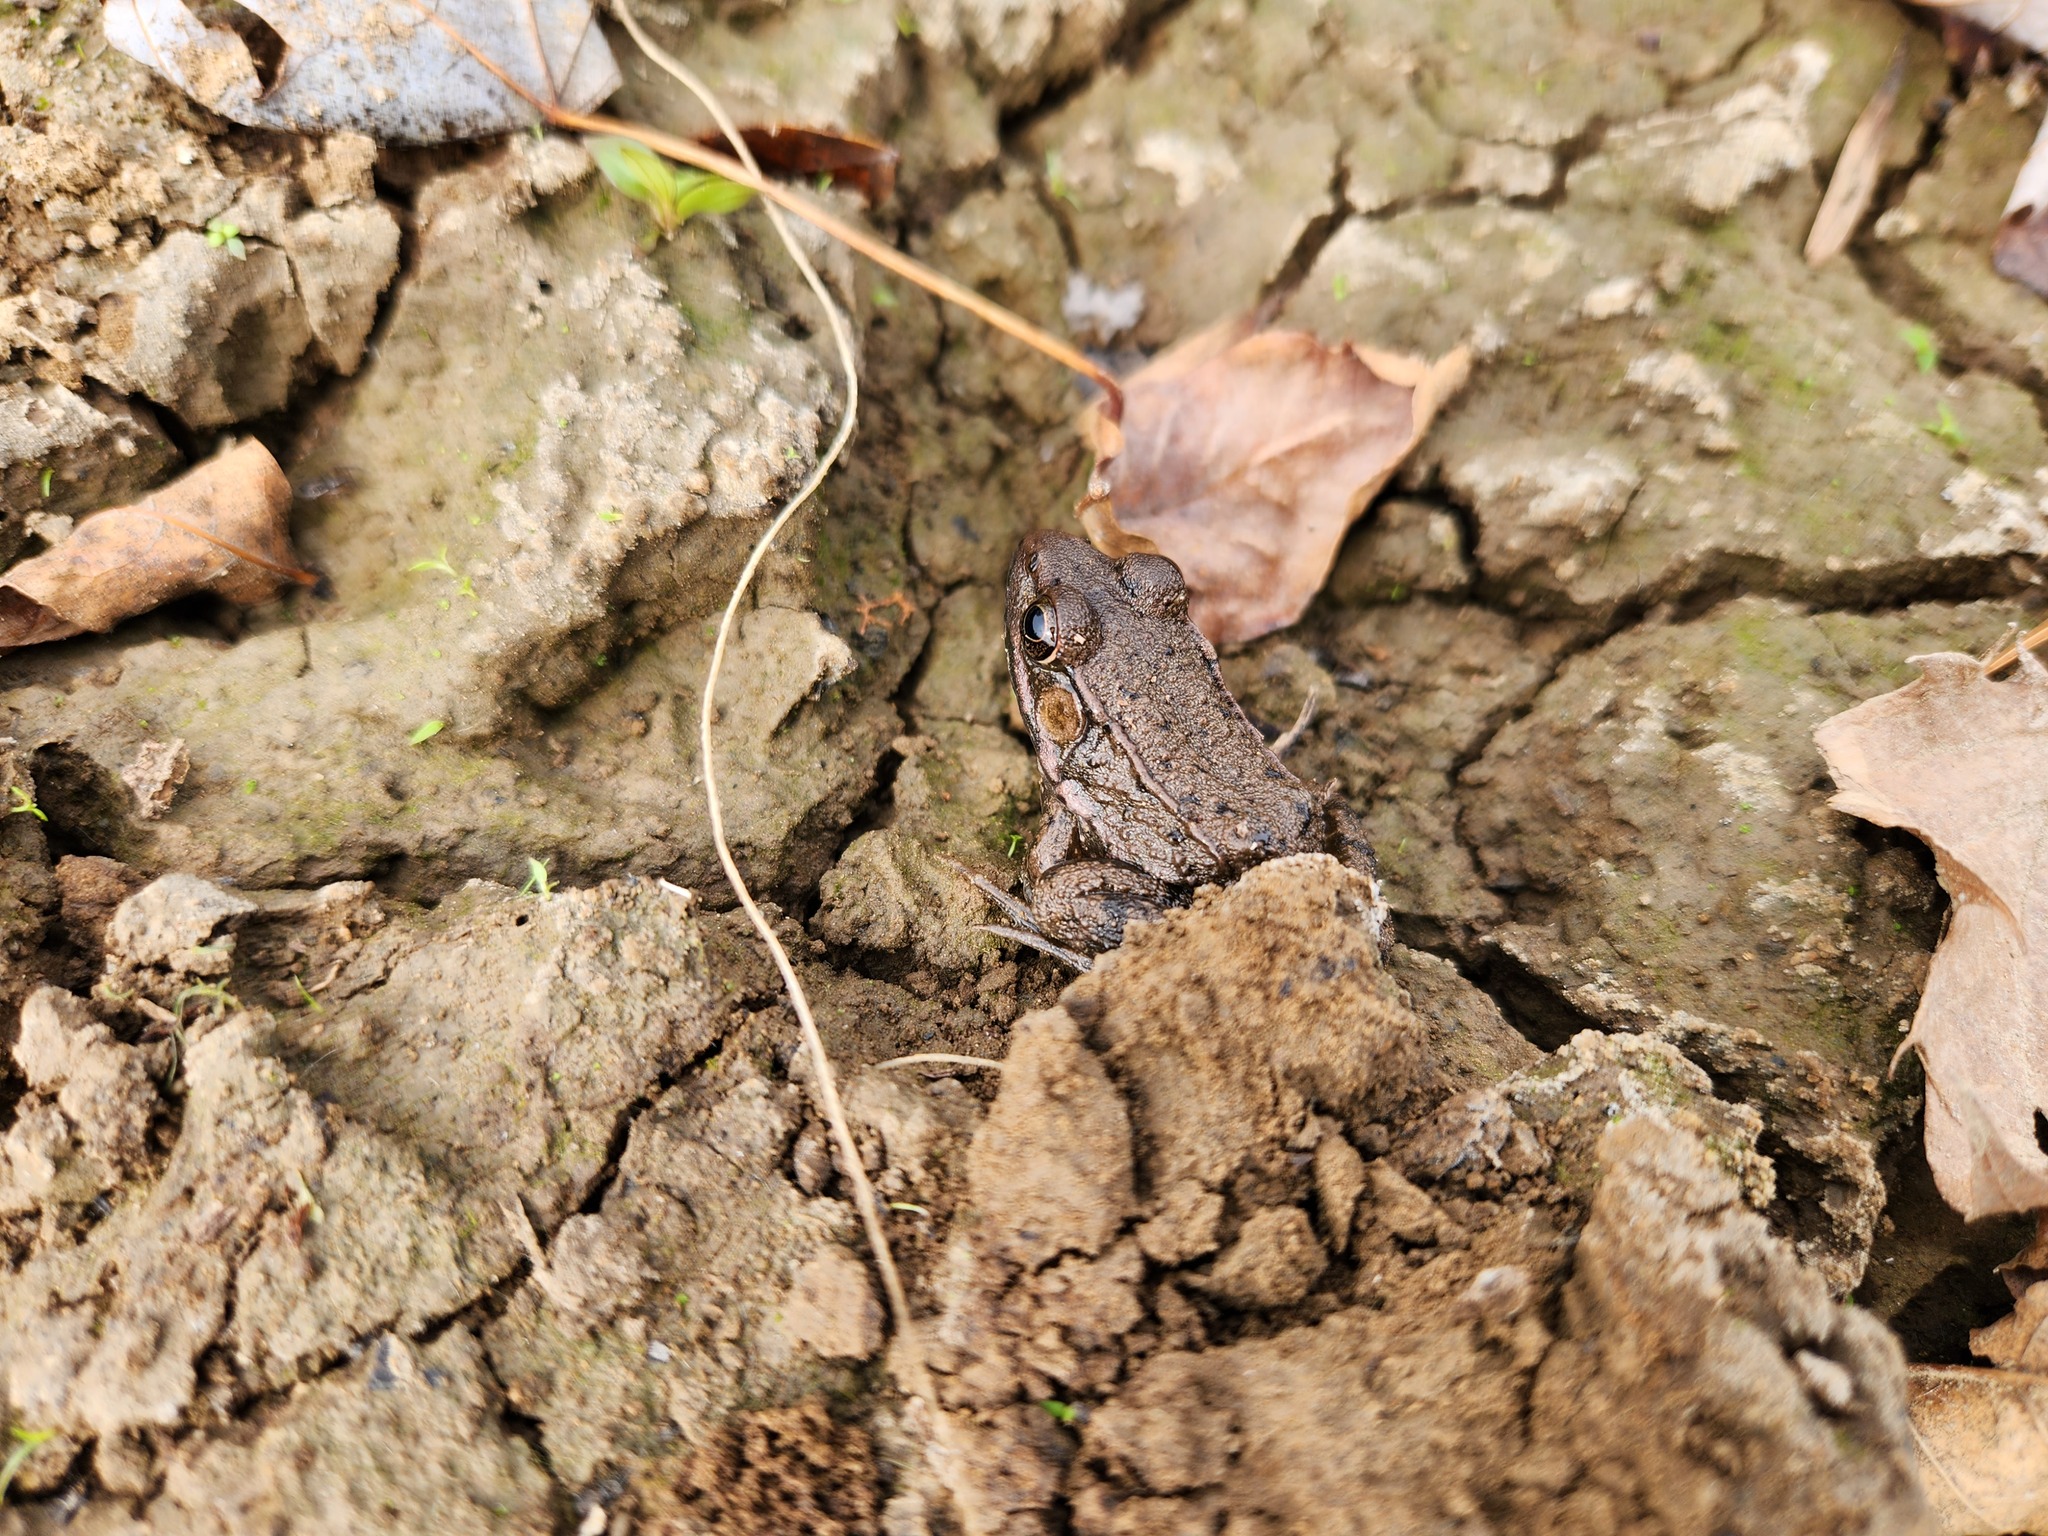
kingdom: Animalia
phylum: Chordata
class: Amphibia
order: Anura
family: Ranidae
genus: Lithobates
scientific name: Lithobates clamitans
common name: Green frog
